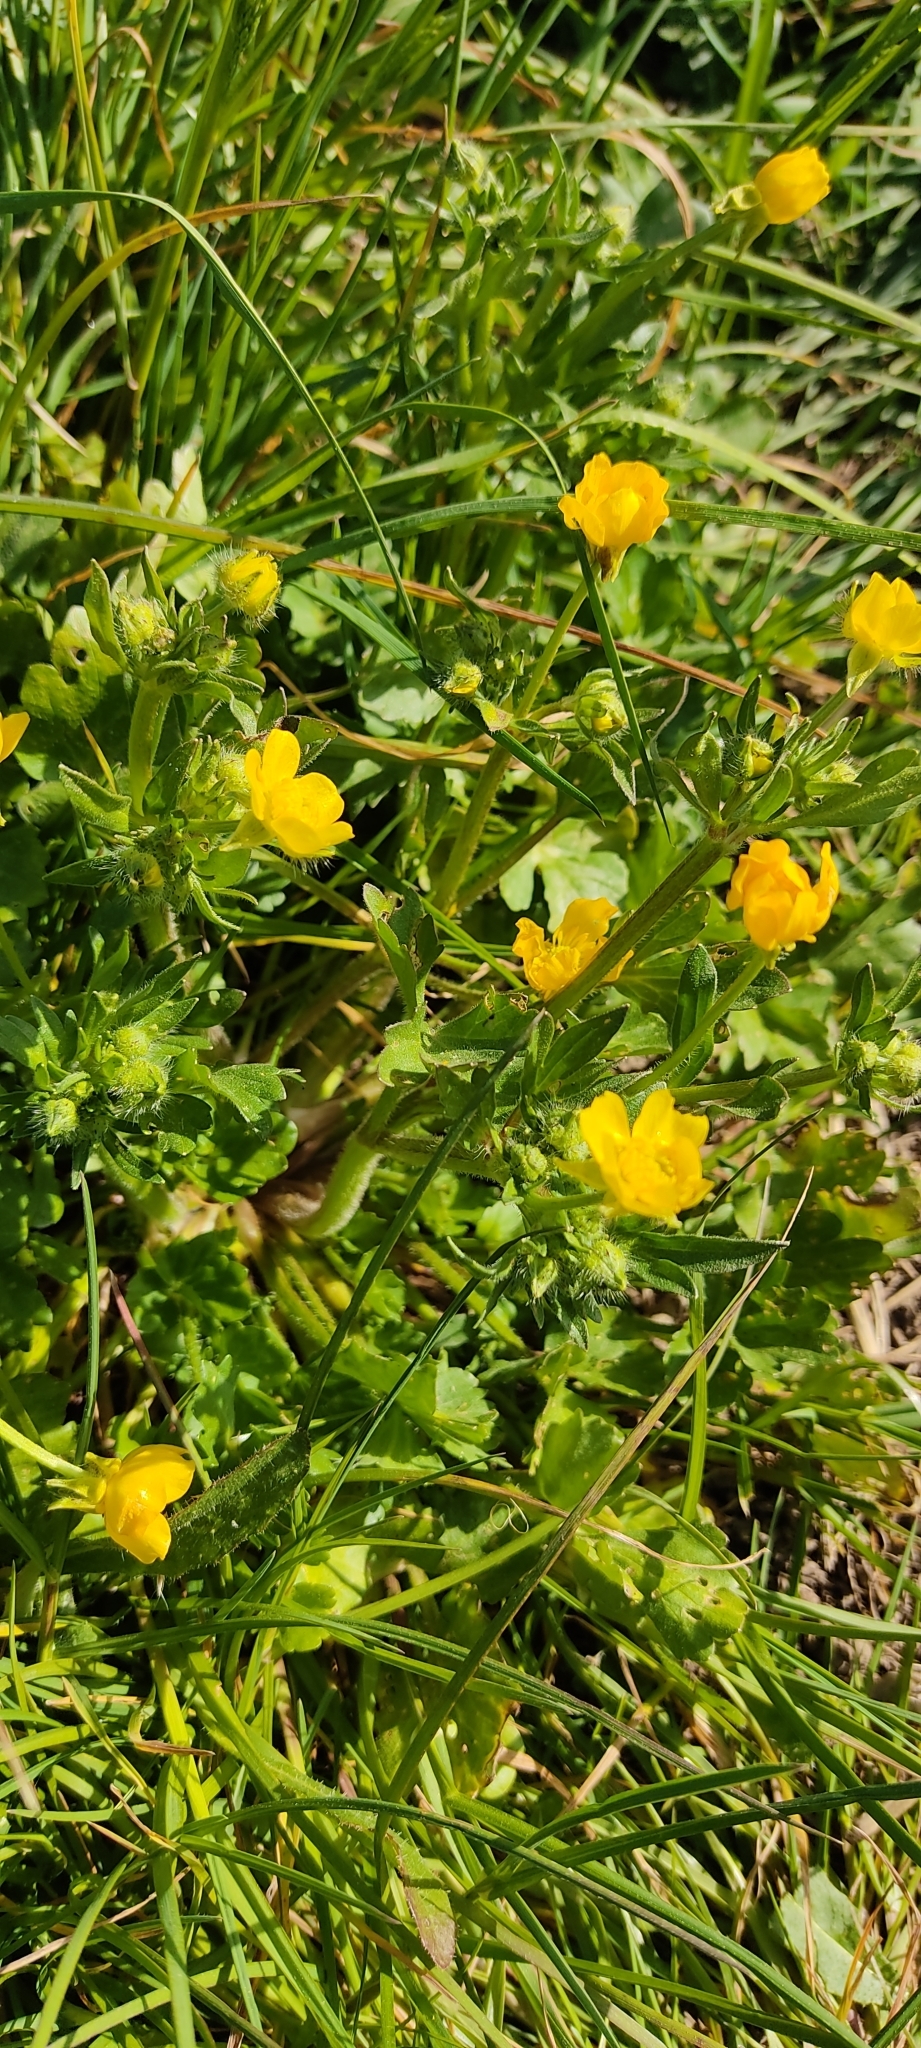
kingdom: Plantae
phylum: Tracheophyta
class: Magnoliopsida
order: Ranunculales
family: Ranunculaceae
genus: Ranunculus
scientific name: Ranunculus bulbosus
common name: Bulbous buttercup
